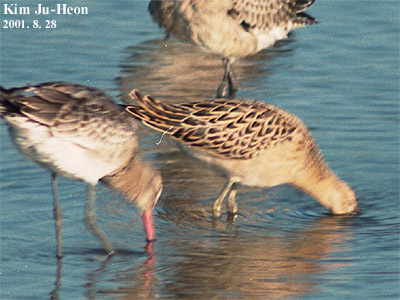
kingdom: Animalia
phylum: Chordata
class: Aves
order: Charadriiformes
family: Scolopacidae
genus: Calidris
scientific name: Calidris pugnax
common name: Ruff
